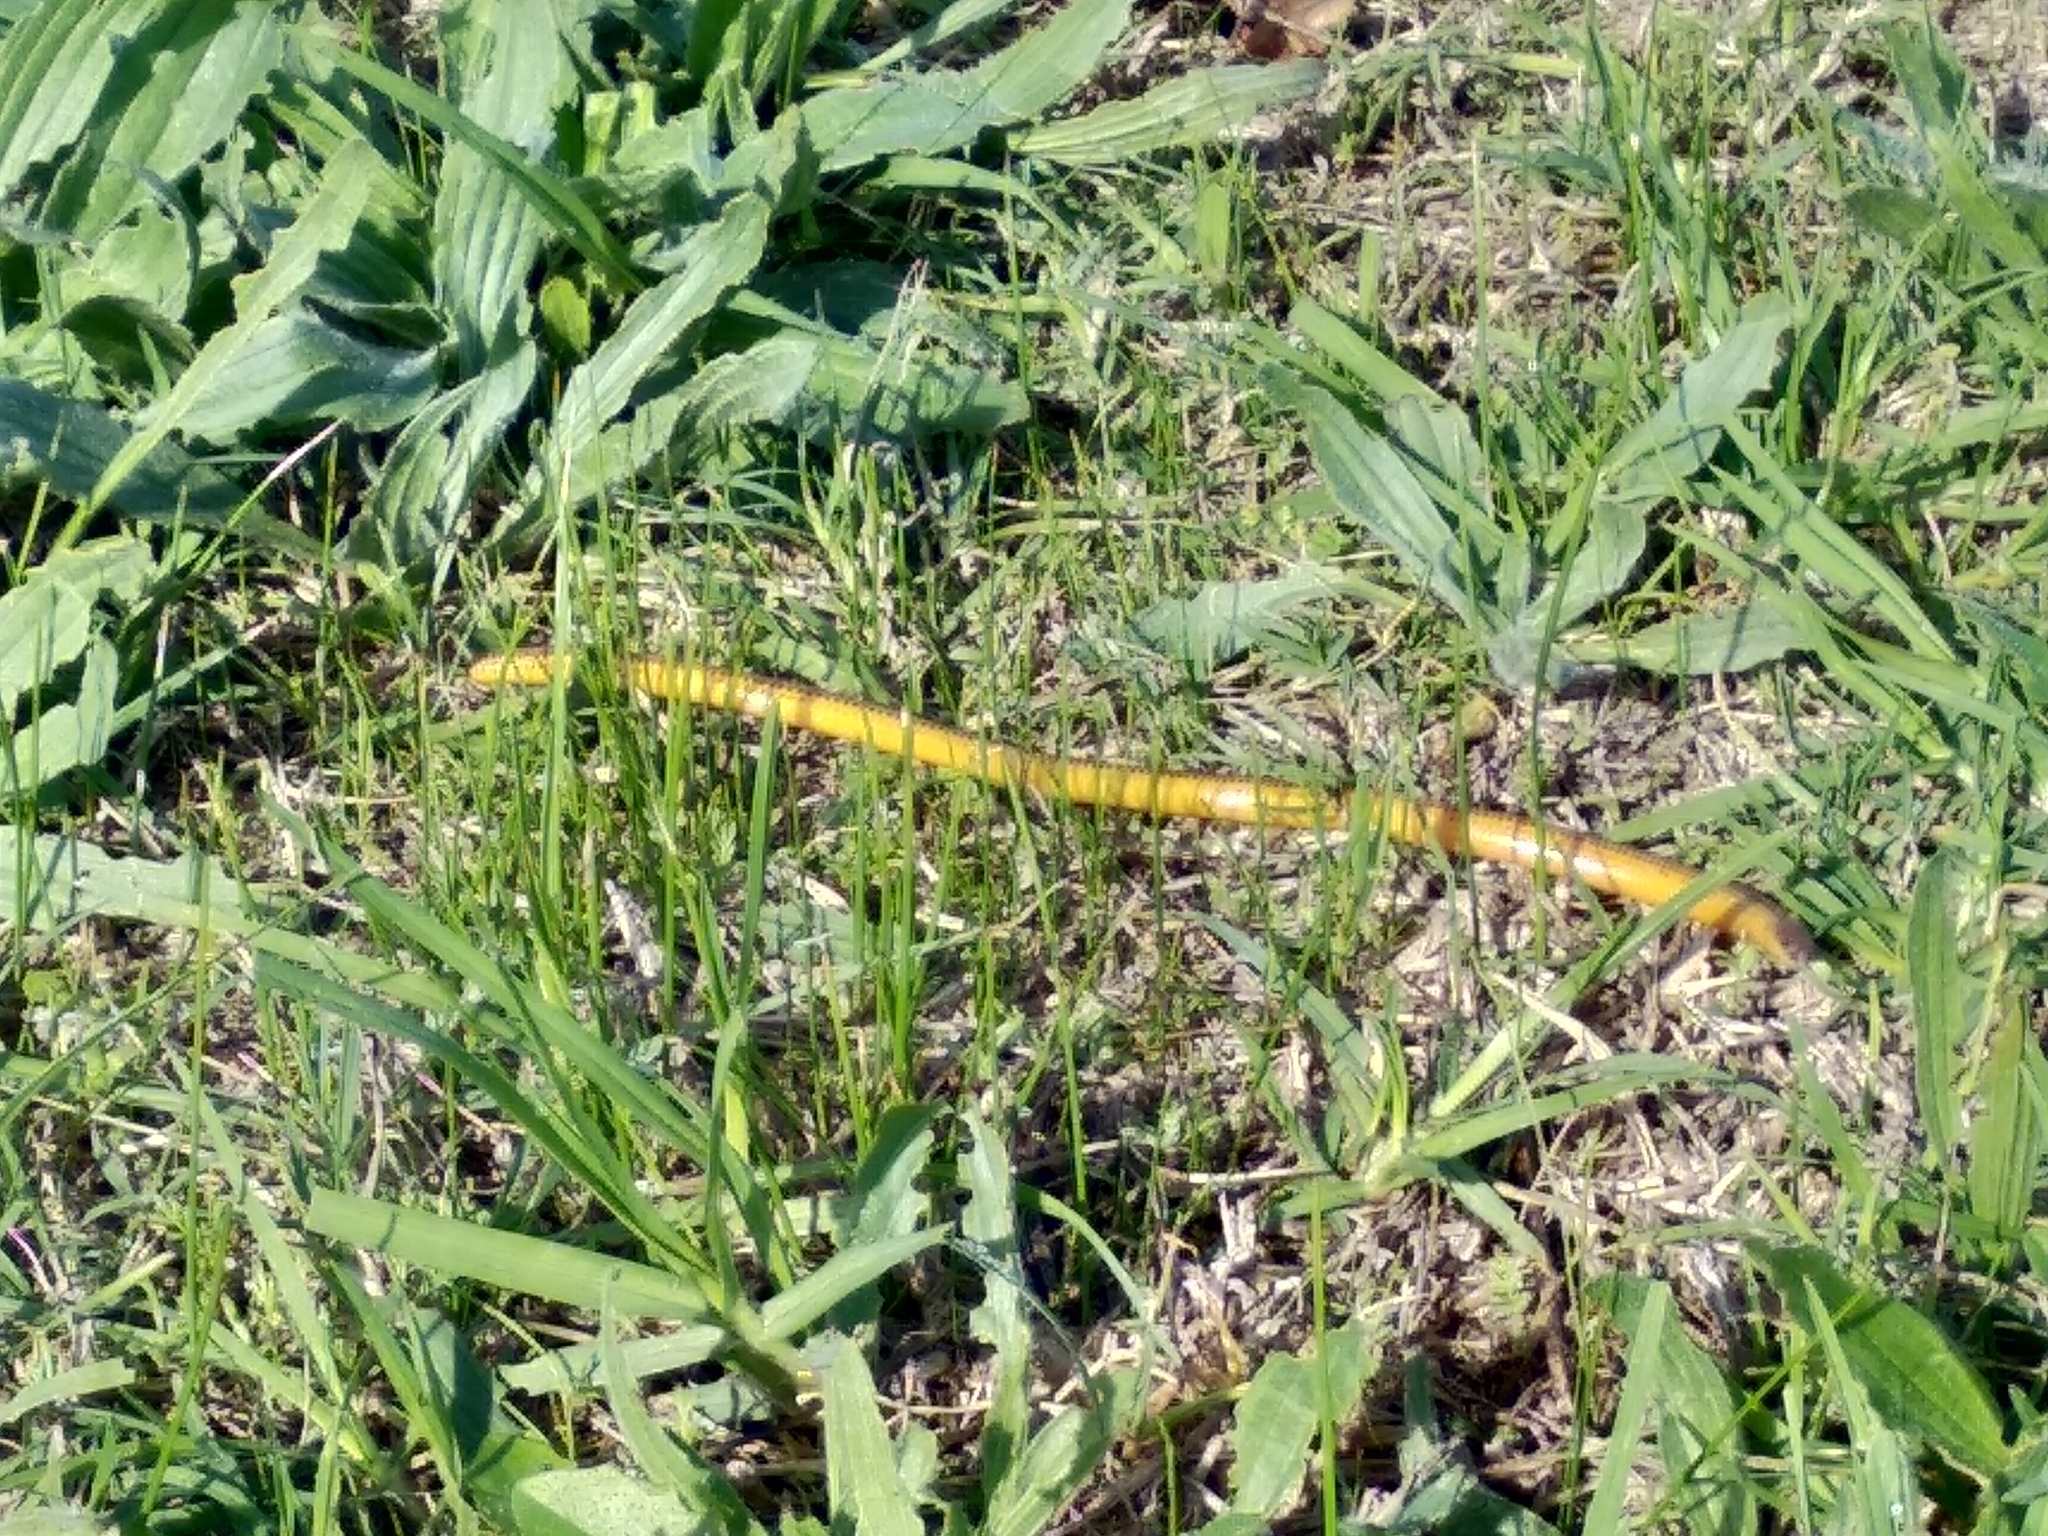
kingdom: Animalia
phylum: Chordata
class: Squamata
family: Scincidae
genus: Acontias
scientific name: Acontias meleagris
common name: Cape legless skink
